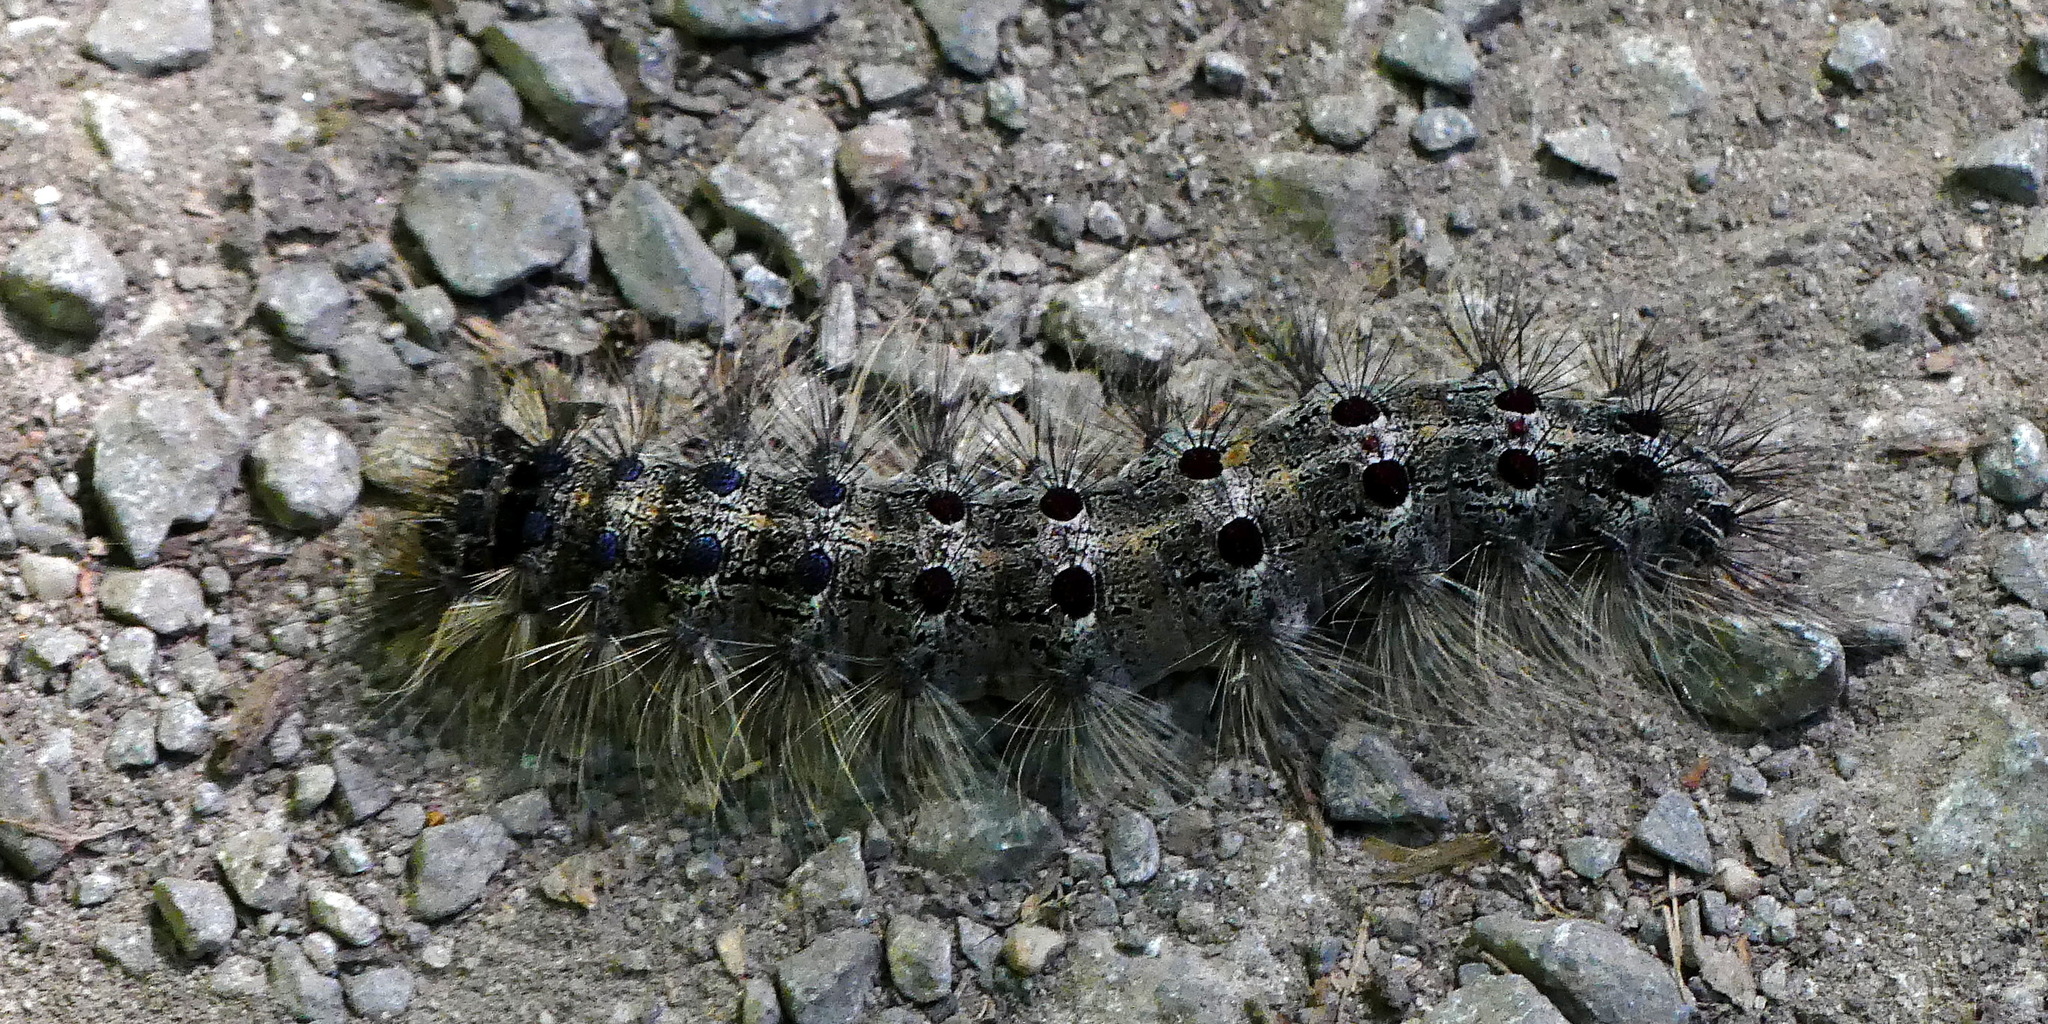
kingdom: Animalia
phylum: Arthropoda
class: Insecta
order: Lepidoptera
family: Erebidae
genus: Lymantria
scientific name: Lymantria dispar
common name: Gypsy moth
